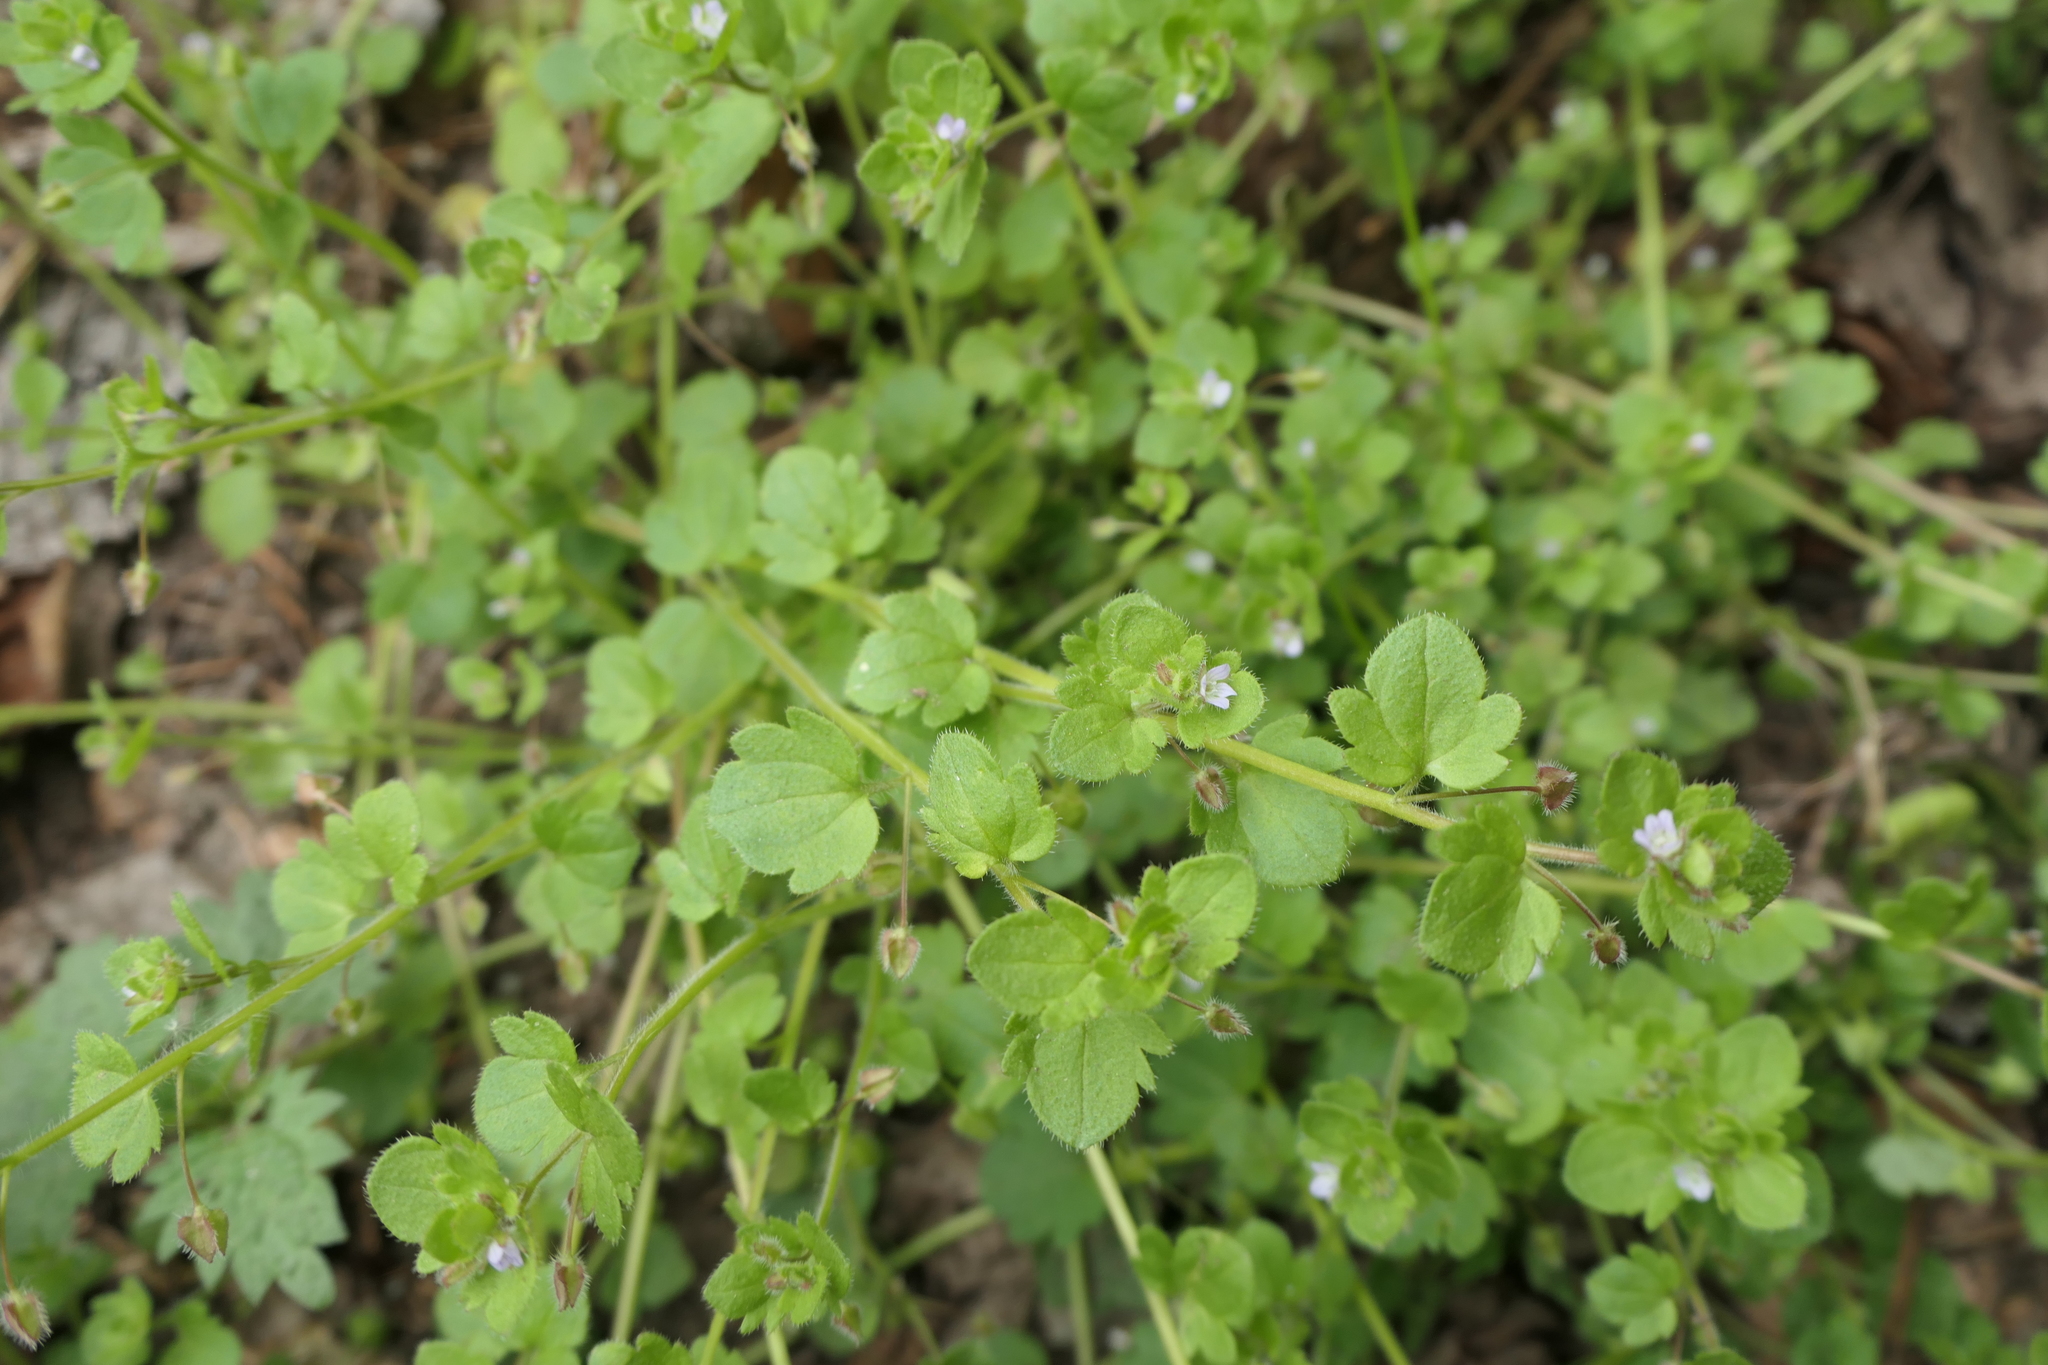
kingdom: Plantae
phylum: Tracheophyta
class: Magnoliopsida
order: Lamiales
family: Plantaginaceae
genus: Veronica
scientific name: Veronica hederifolia
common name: Ivy-leaved speedwell
